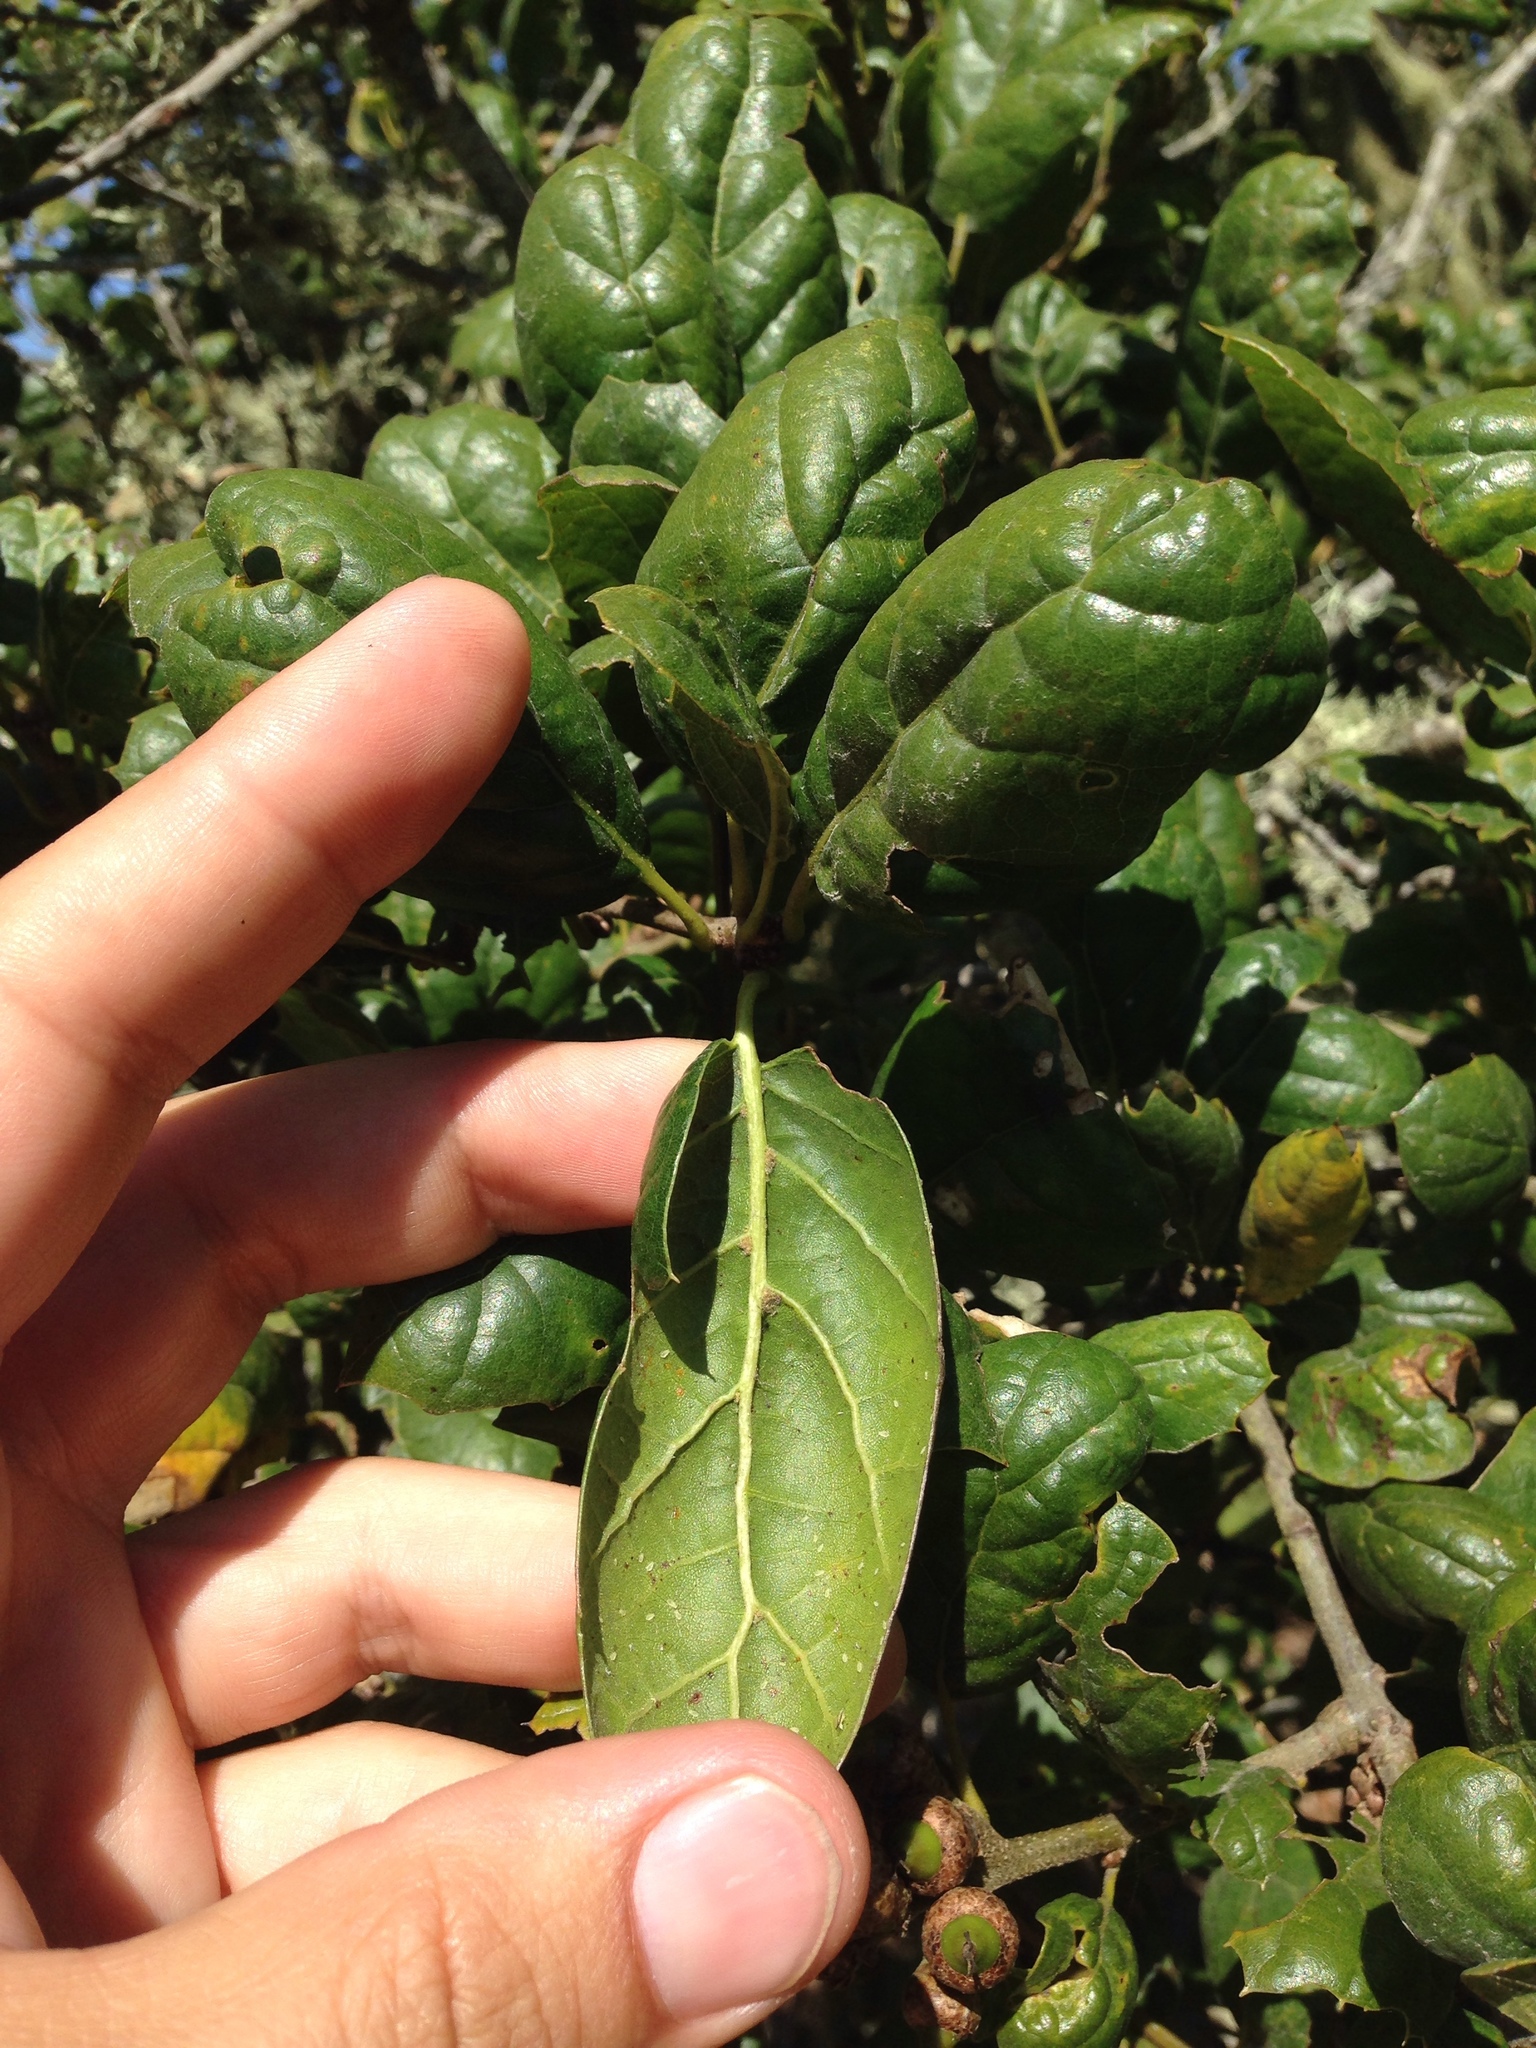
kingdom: Plantae
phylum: Tracheophyta
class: Magnoliopsida
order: Fagales
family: Fagaceae
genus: Quercus
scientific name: Quercus agrifolia
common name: California live oak
